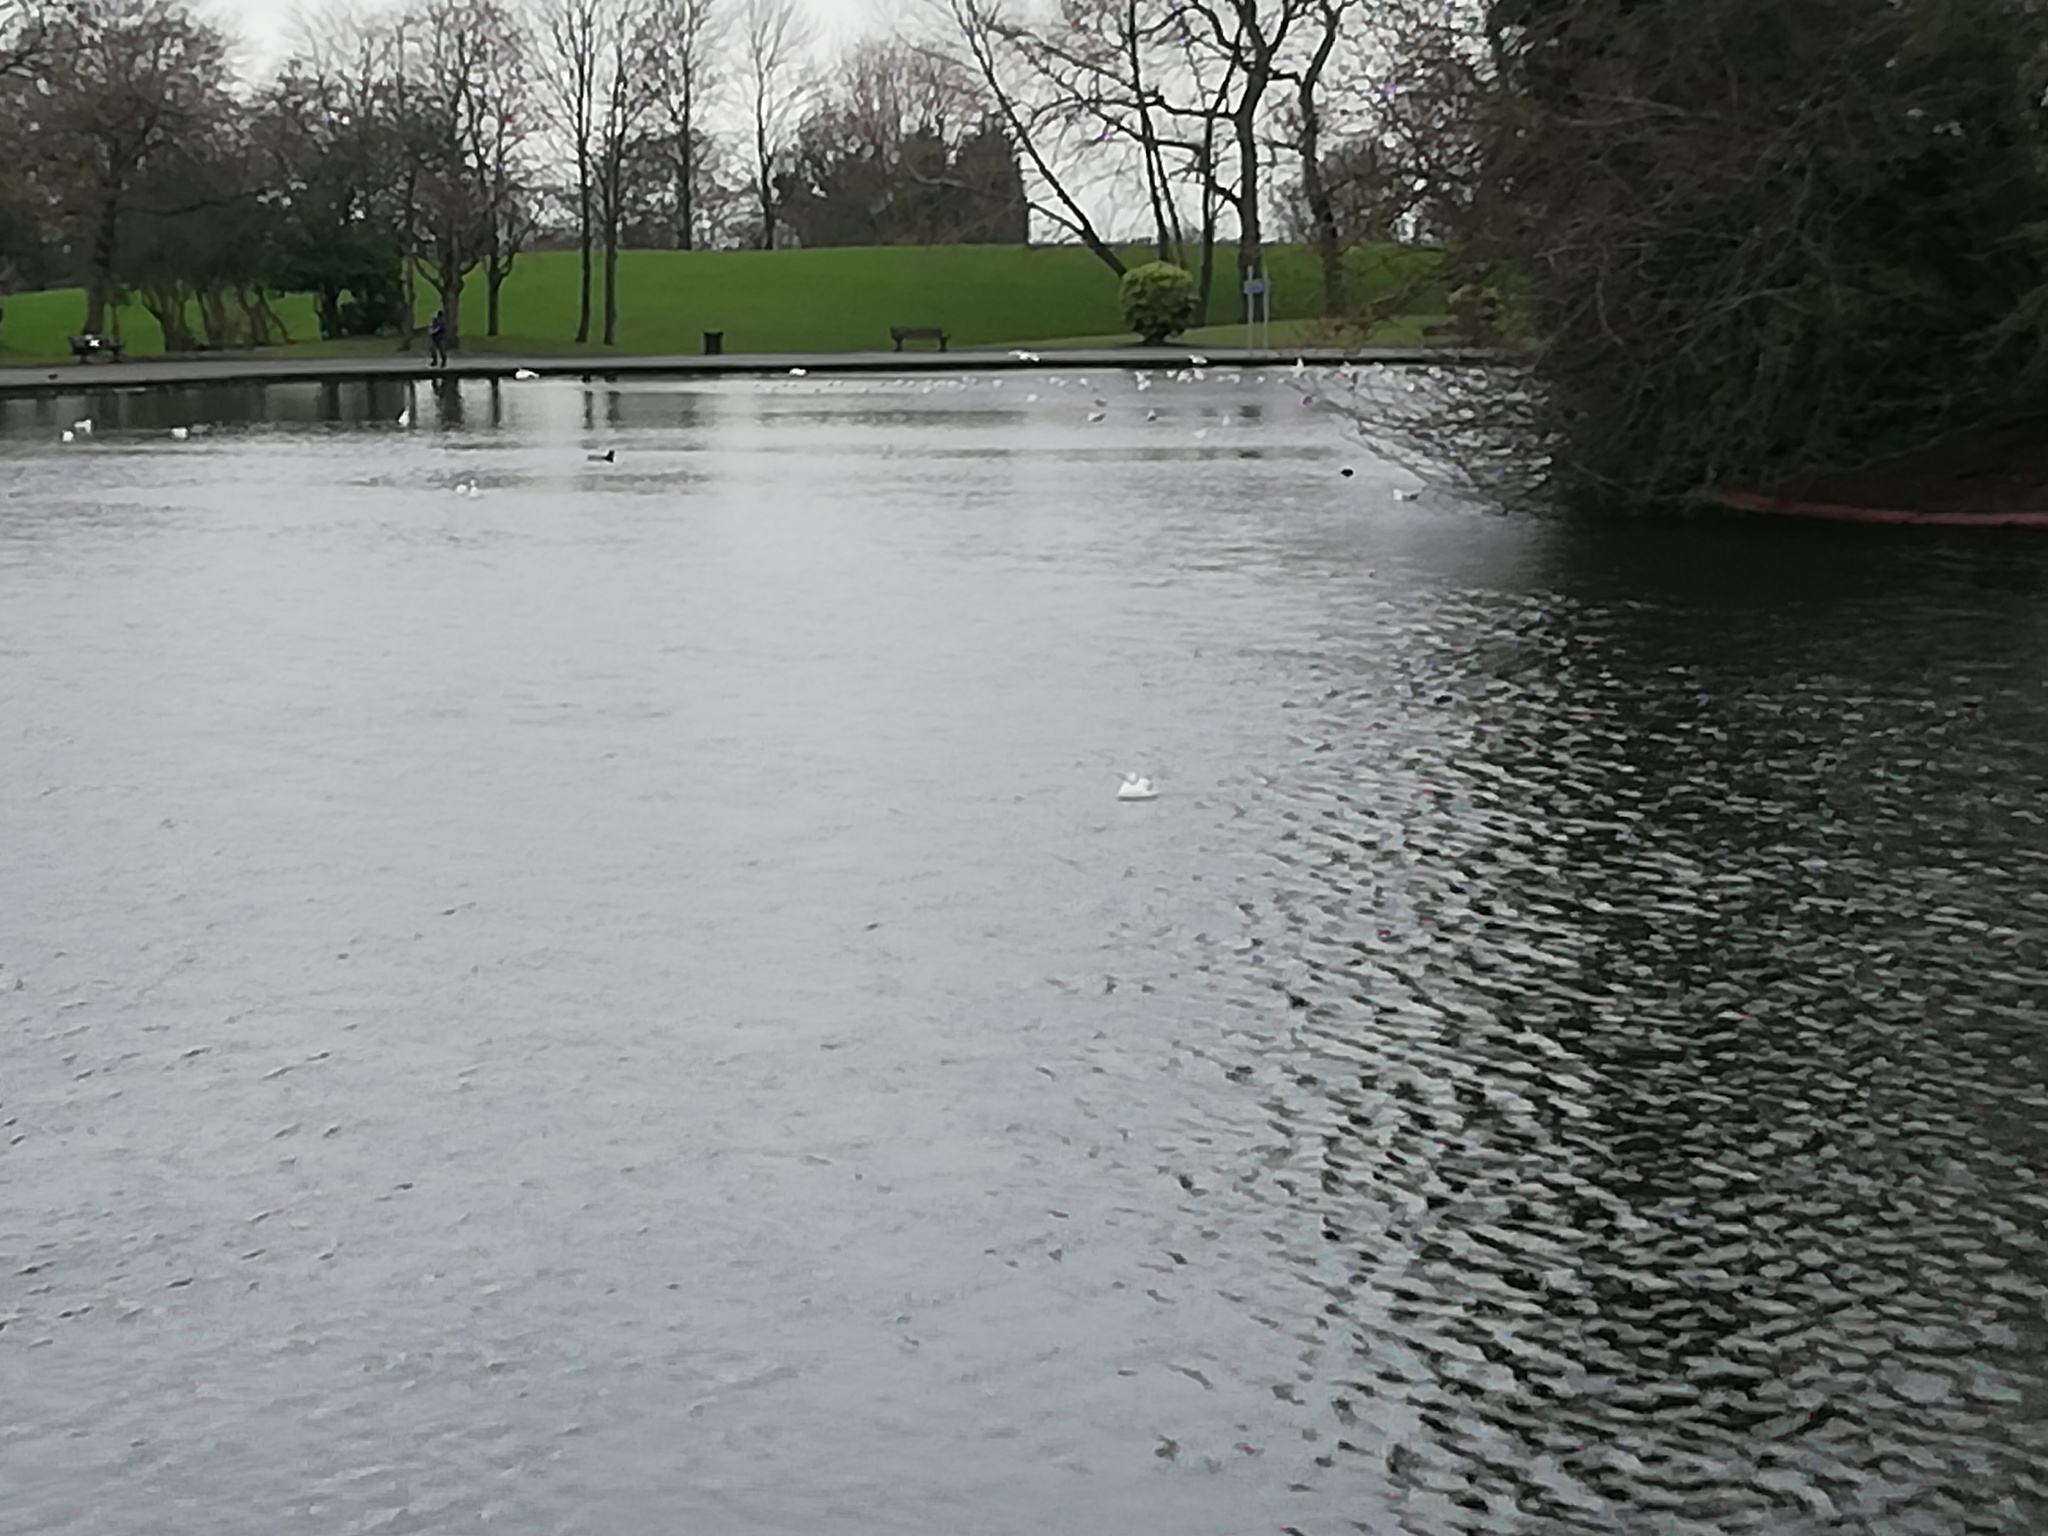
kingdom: Animalia
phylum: Chordata
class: Aves
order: Charadriiformes
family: Laridae
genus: Chroicocephalus
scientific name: Chroicocephalus ridibundus
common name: Black-headed gull
